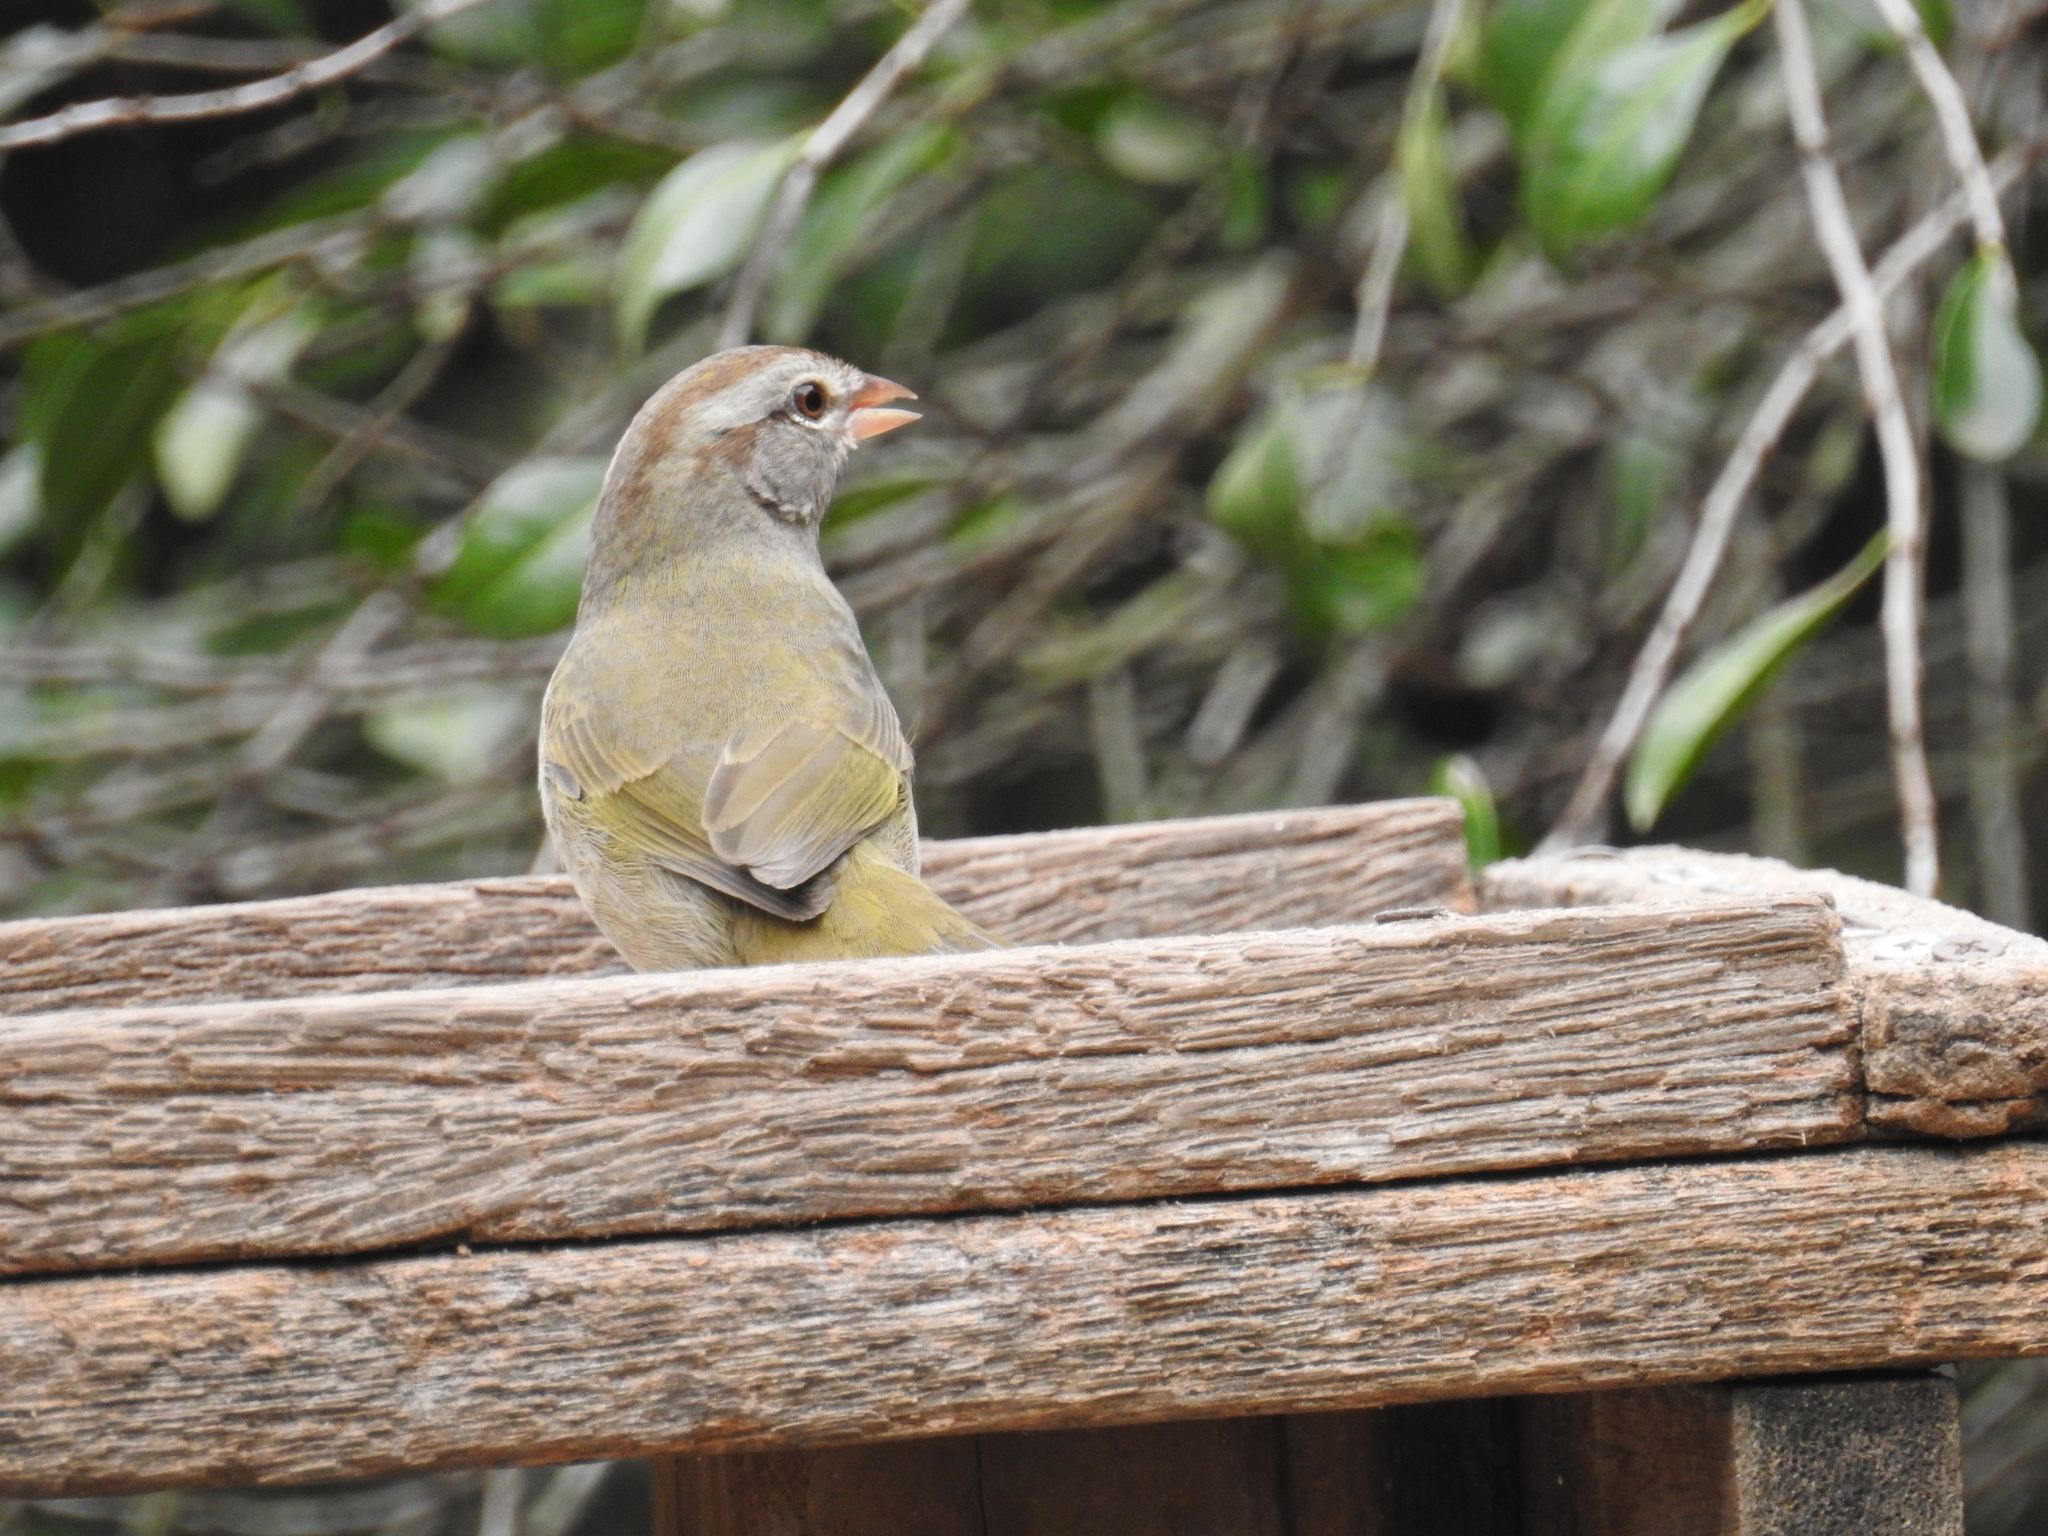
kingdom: Animalia
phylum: Chordata
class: Aves
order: Passeriformes
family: Passerellidae
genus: Arremonops
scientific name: Arremonops rufivirgatus
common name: Olive sparrow
